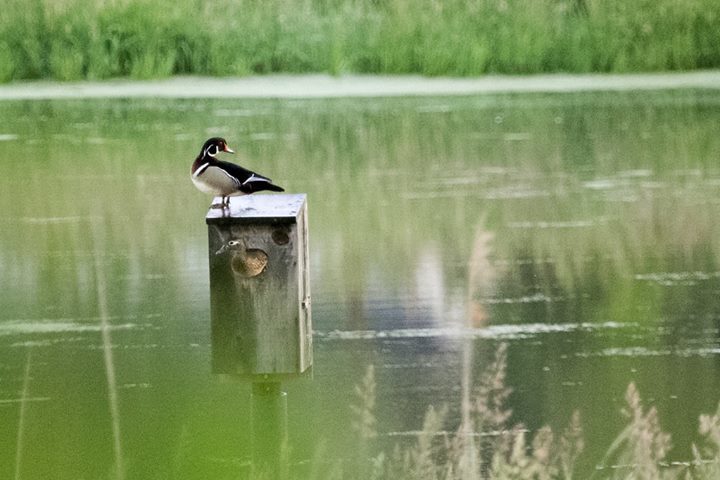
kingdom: Animalia
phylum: Chordata
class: Aves
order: Anseriformes
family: Anatidae
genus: Aix
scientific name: Aix sponsa
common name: Wood duck
